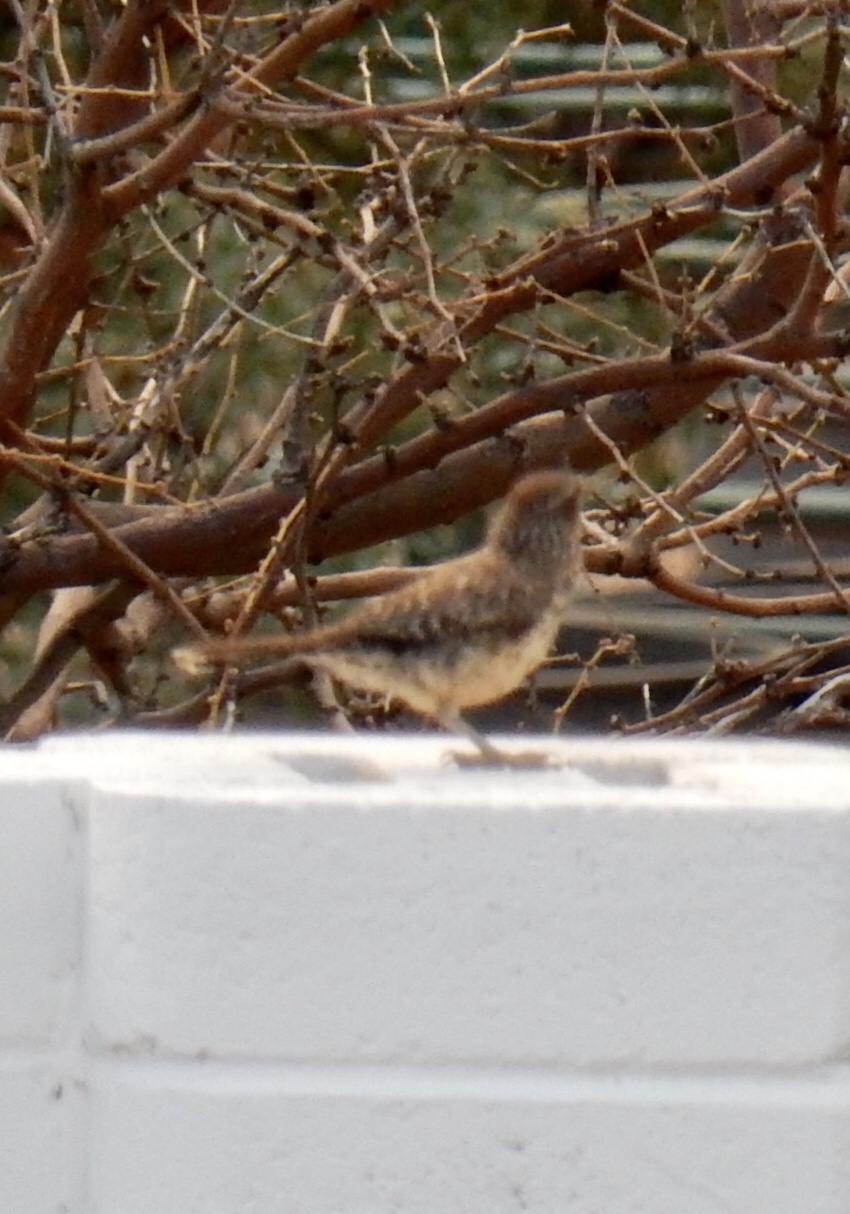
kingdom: Animalia
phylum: Chordata
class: Aves
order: Passeriformes
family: Troglodytidae
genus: Campylorhynchus
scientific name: Campylorhynchus brunneicapillus
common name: Cactus wren
